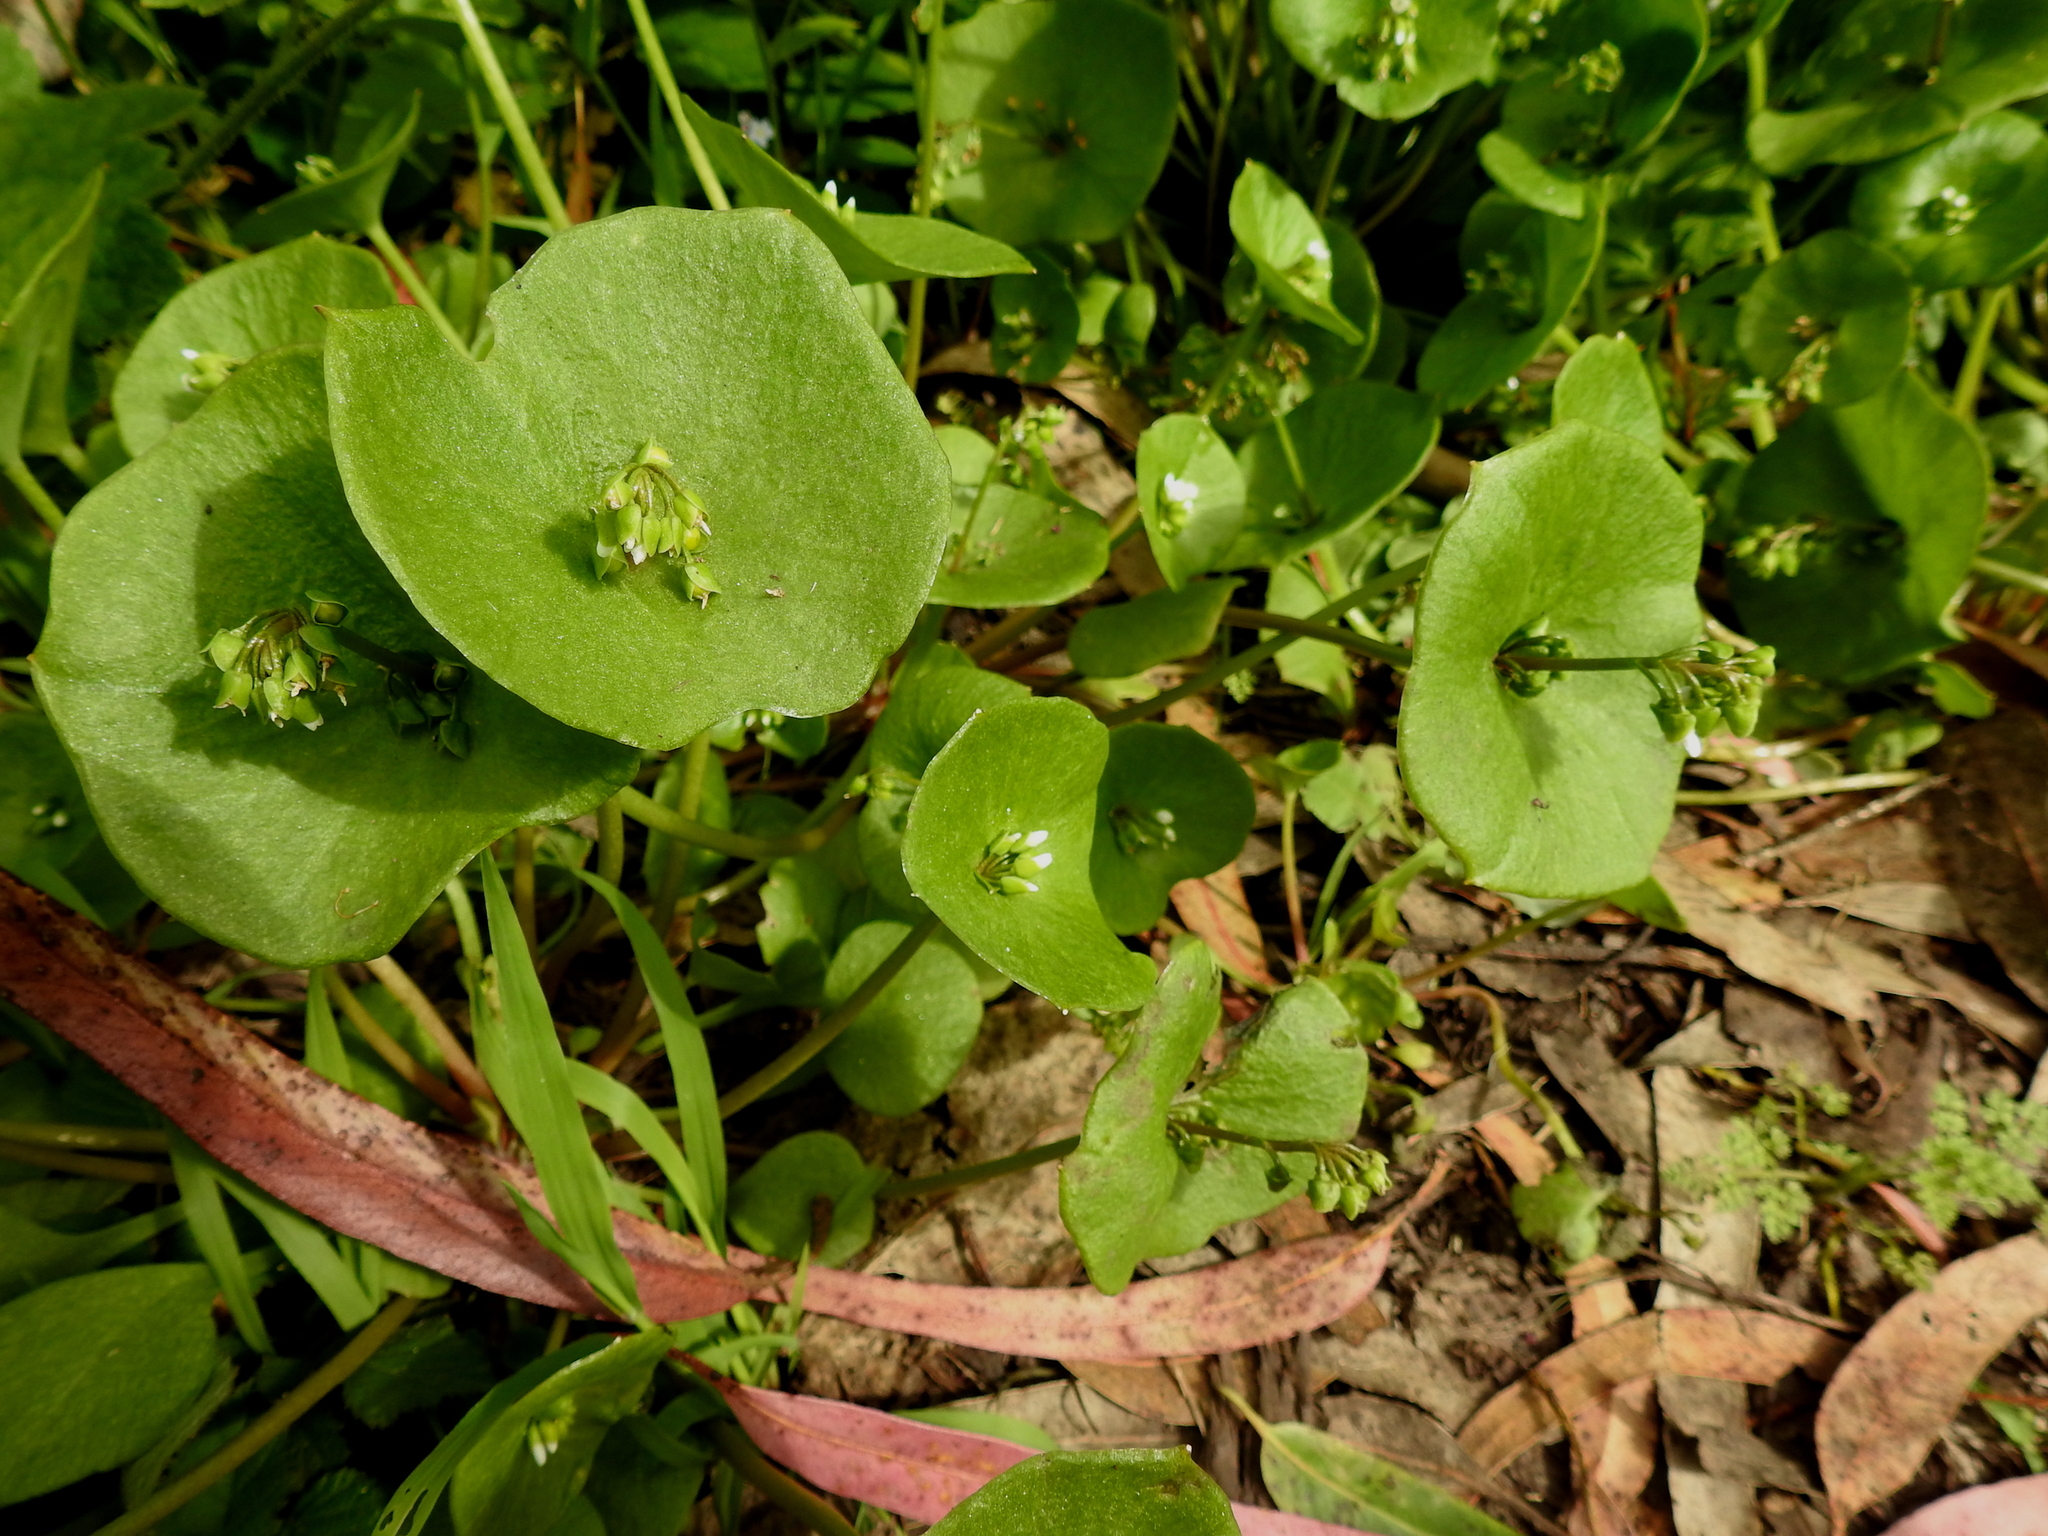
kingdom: Plantae
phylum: Tracheophyta
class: Magnoliopsida
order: Caryophyllales
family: Montiaceae
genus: Claytonia
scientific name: Claytonia perfoliata
